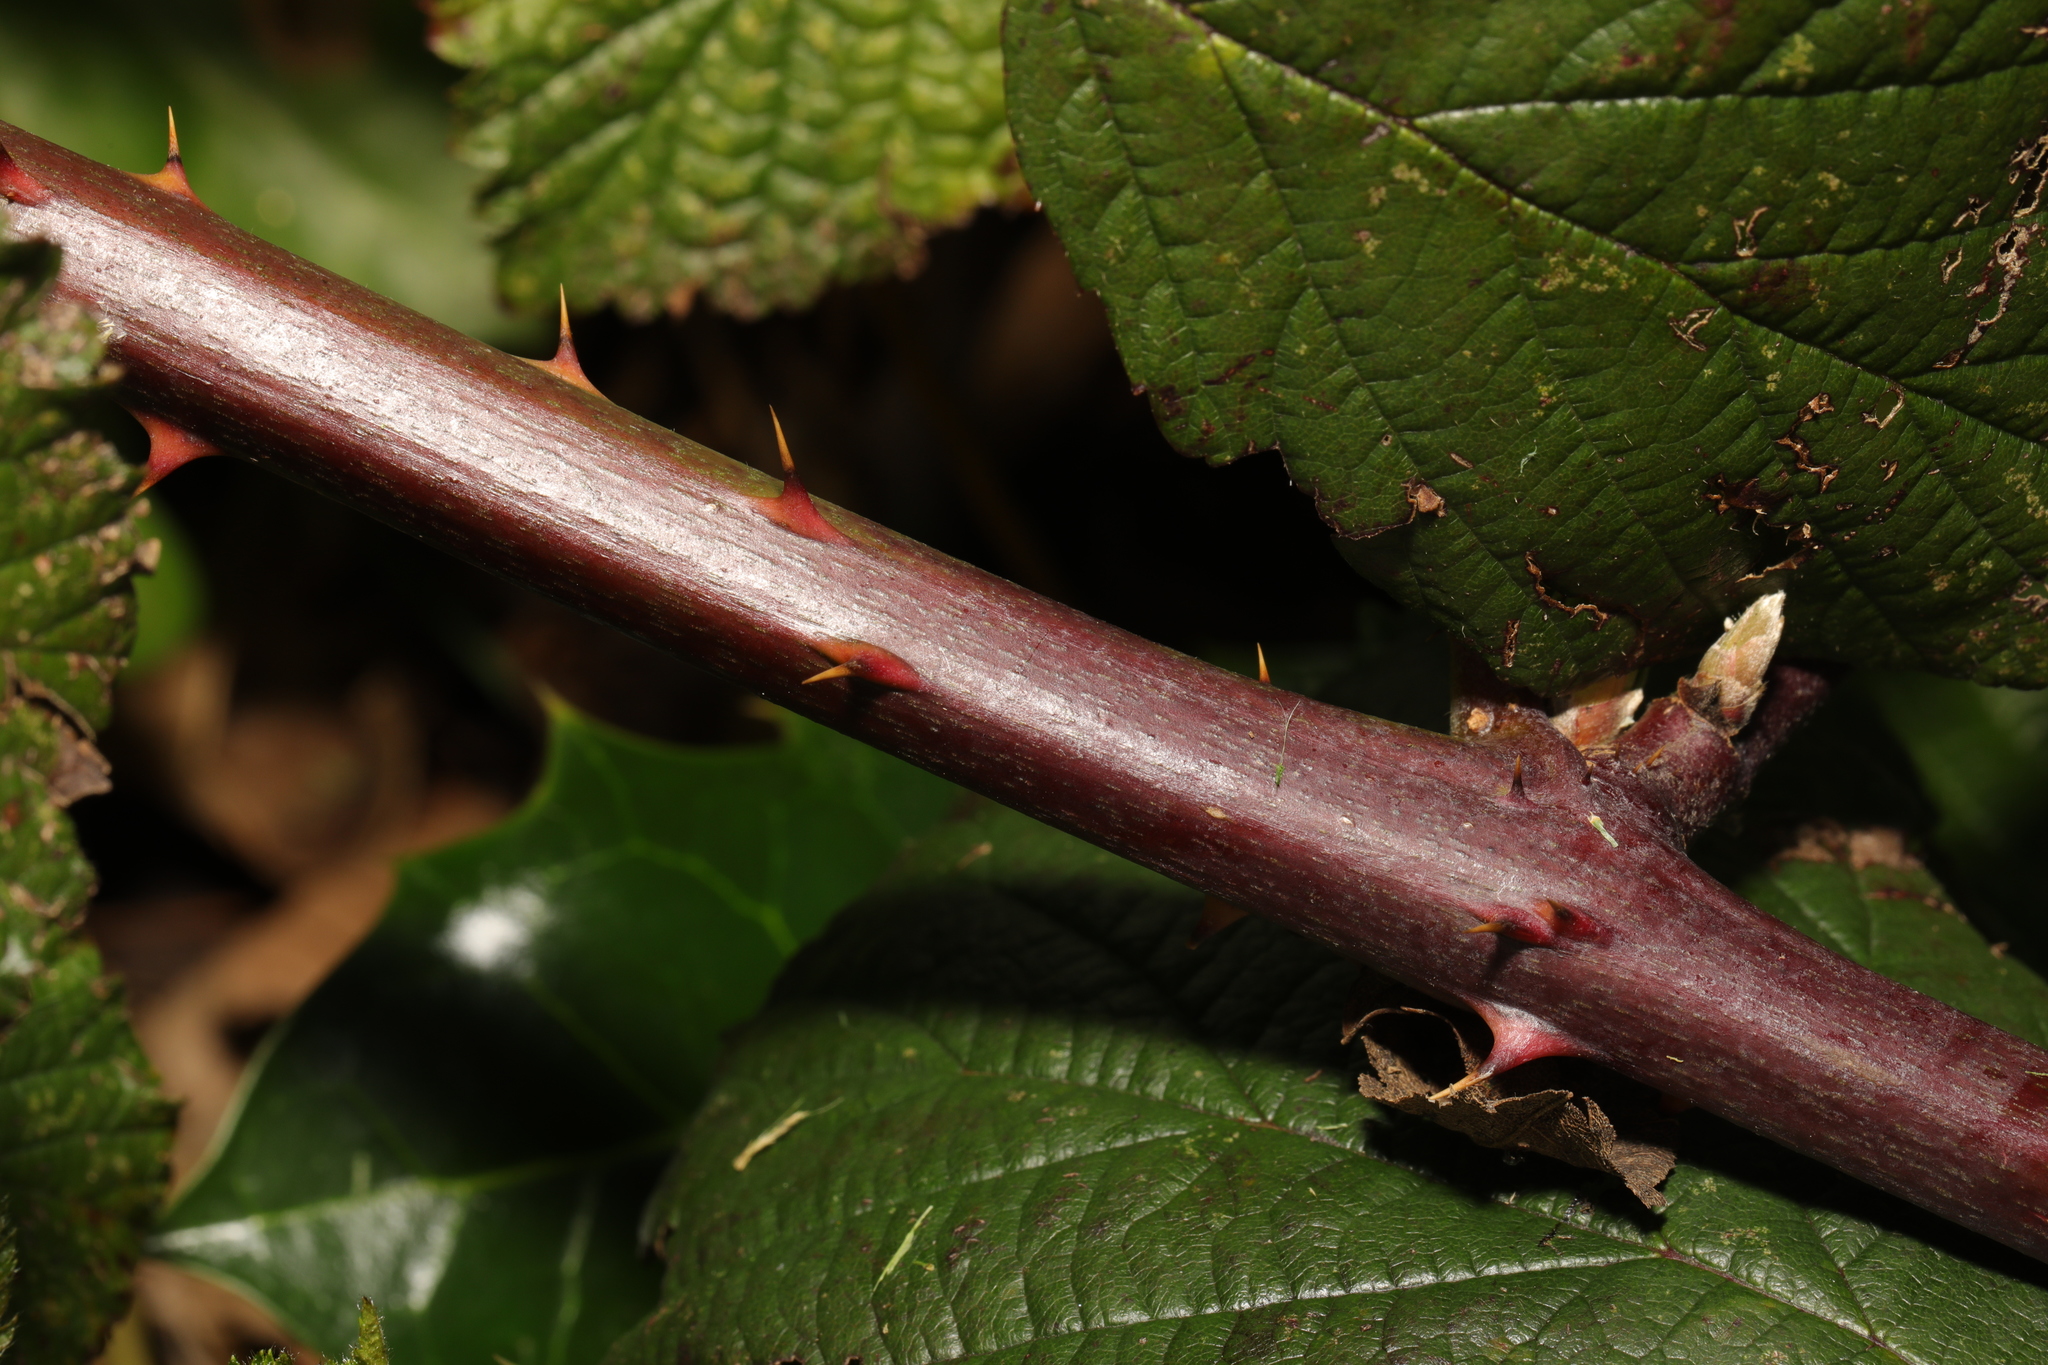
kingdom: Plantae
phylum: Tracheophyta
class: Magnoliopsida
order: Rosales
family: Rosaceae
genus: Rubus
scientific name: Rubus cissburiensis
